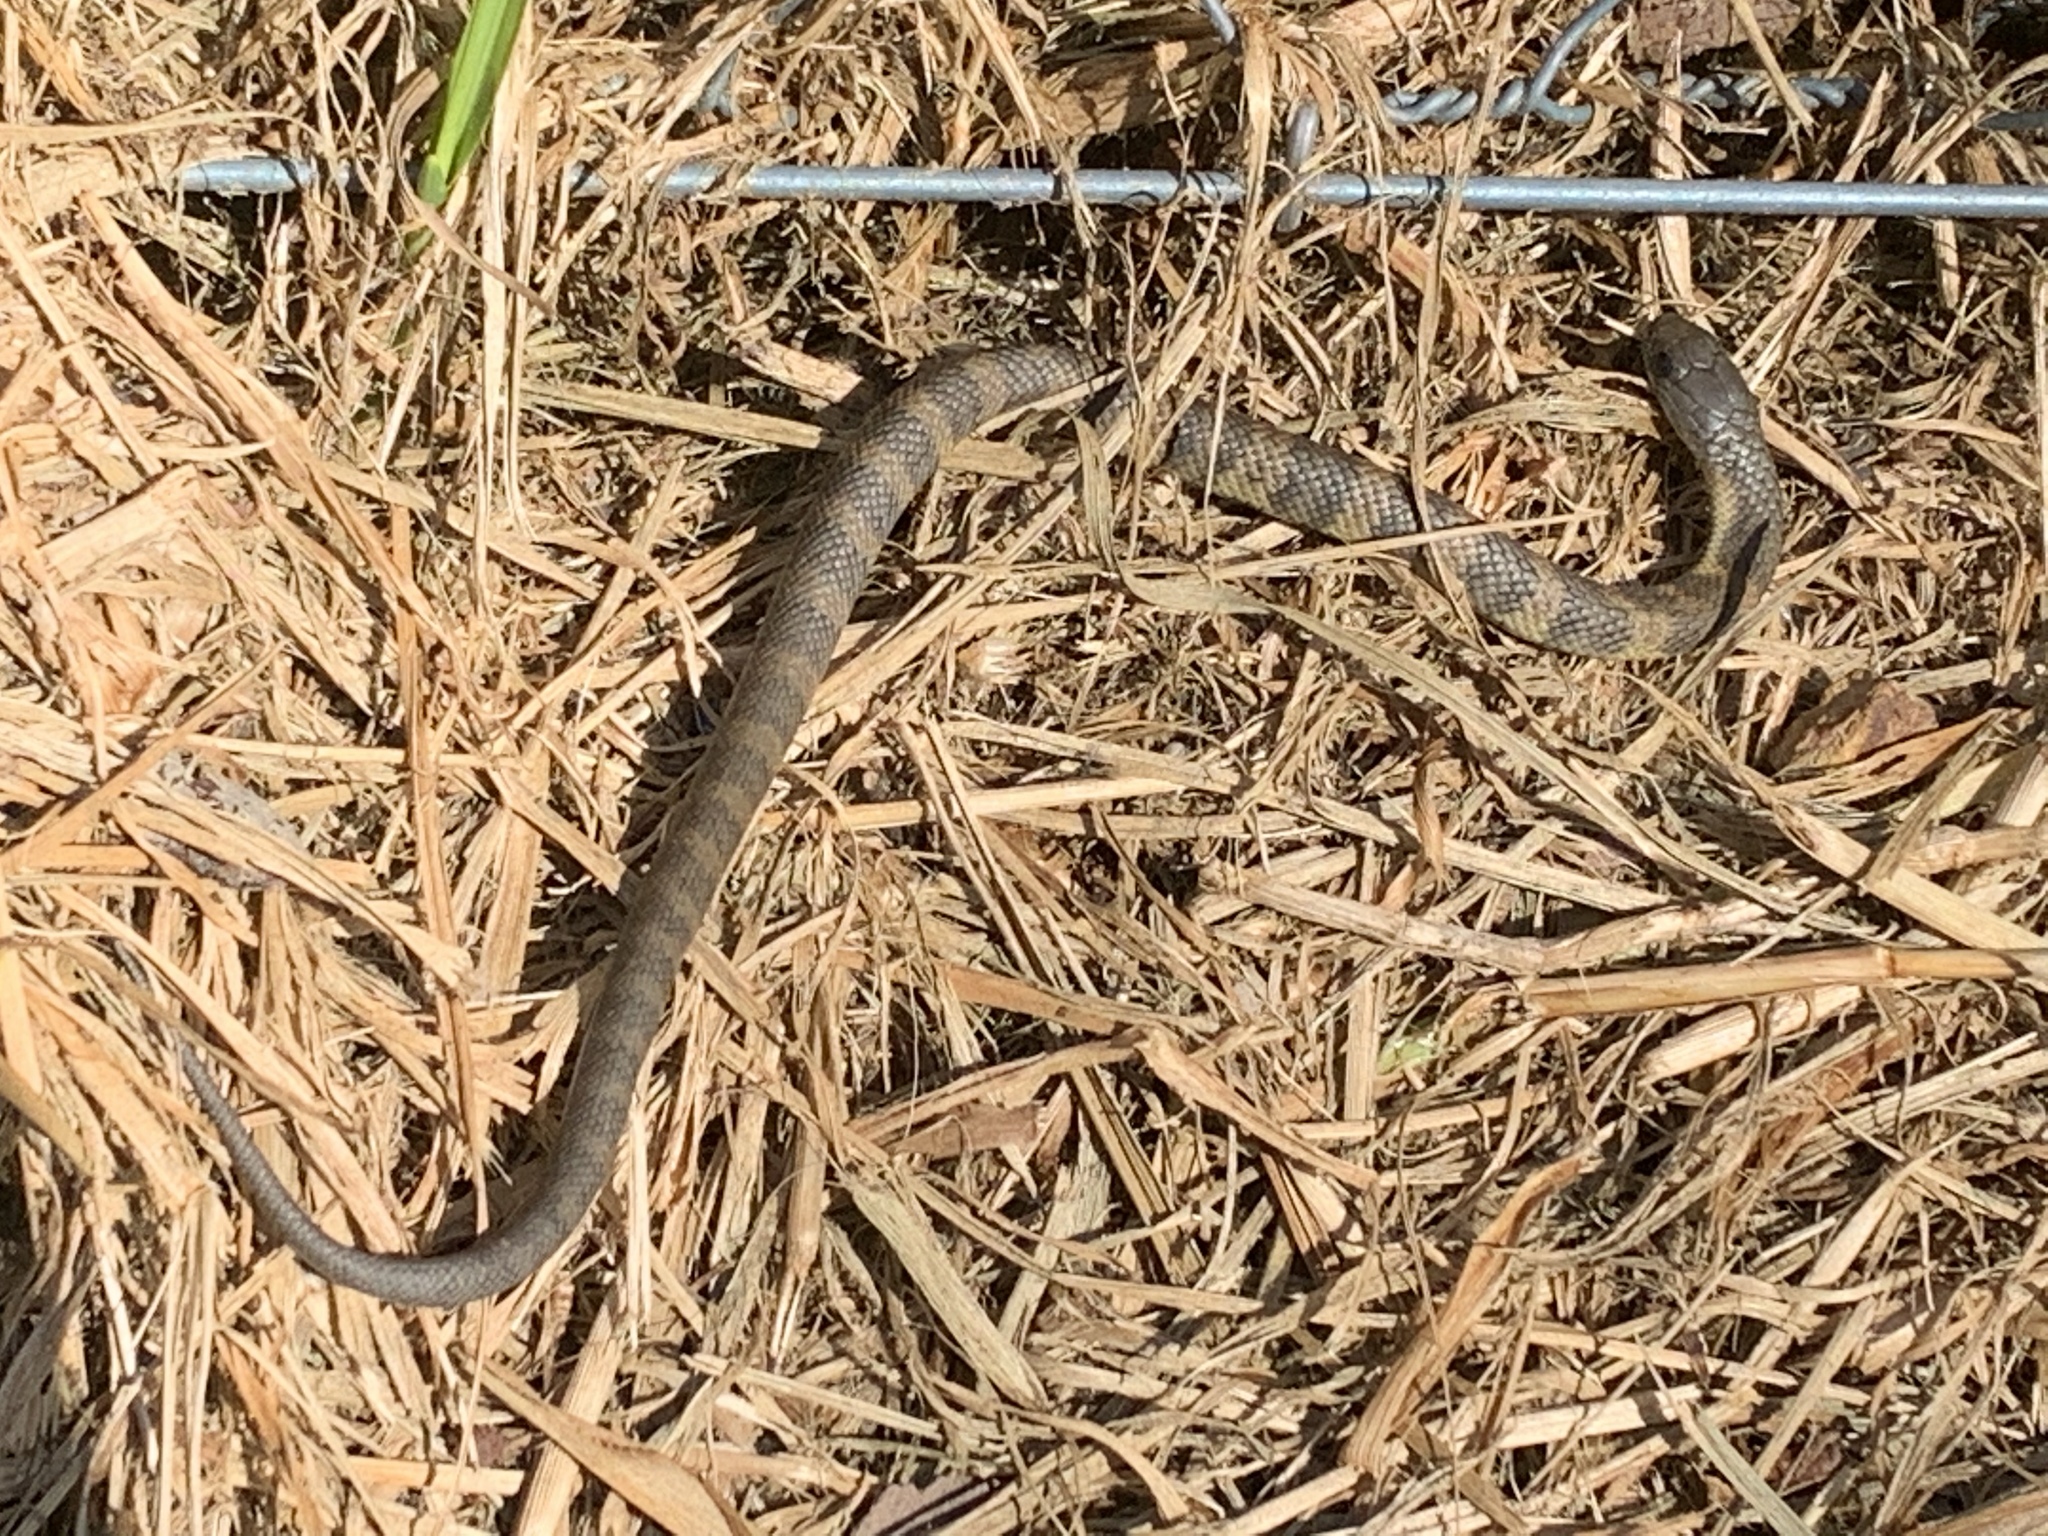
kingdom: Animalia
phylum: Chordata
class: Squamata
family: Elapidae
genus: Notechis
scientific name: Notechis scutatus
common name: Mainland tiger snake
